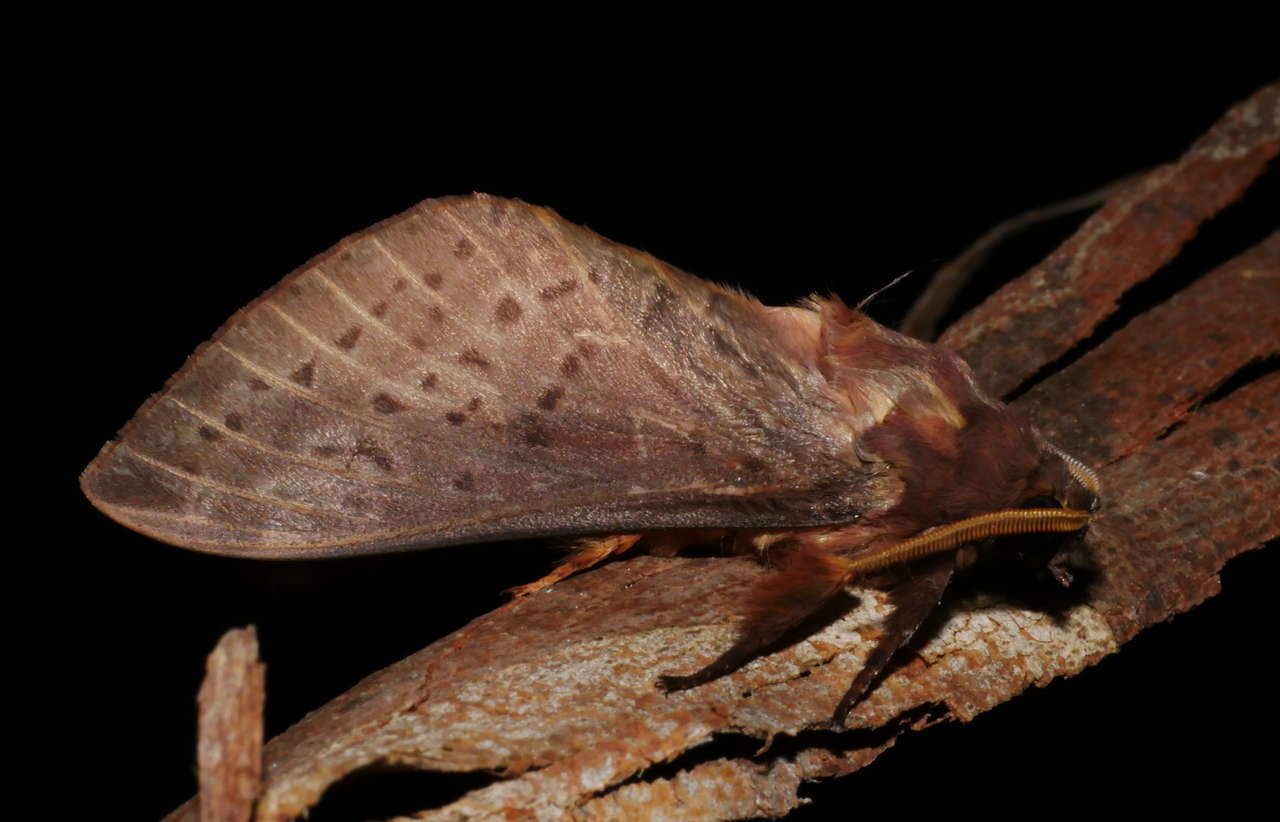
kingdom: Animalia
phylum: Arthropoda
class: Insecta
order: Lepidoptera
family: Hepialidae
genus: Oxycanus
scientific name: Oxycanus silvanus
